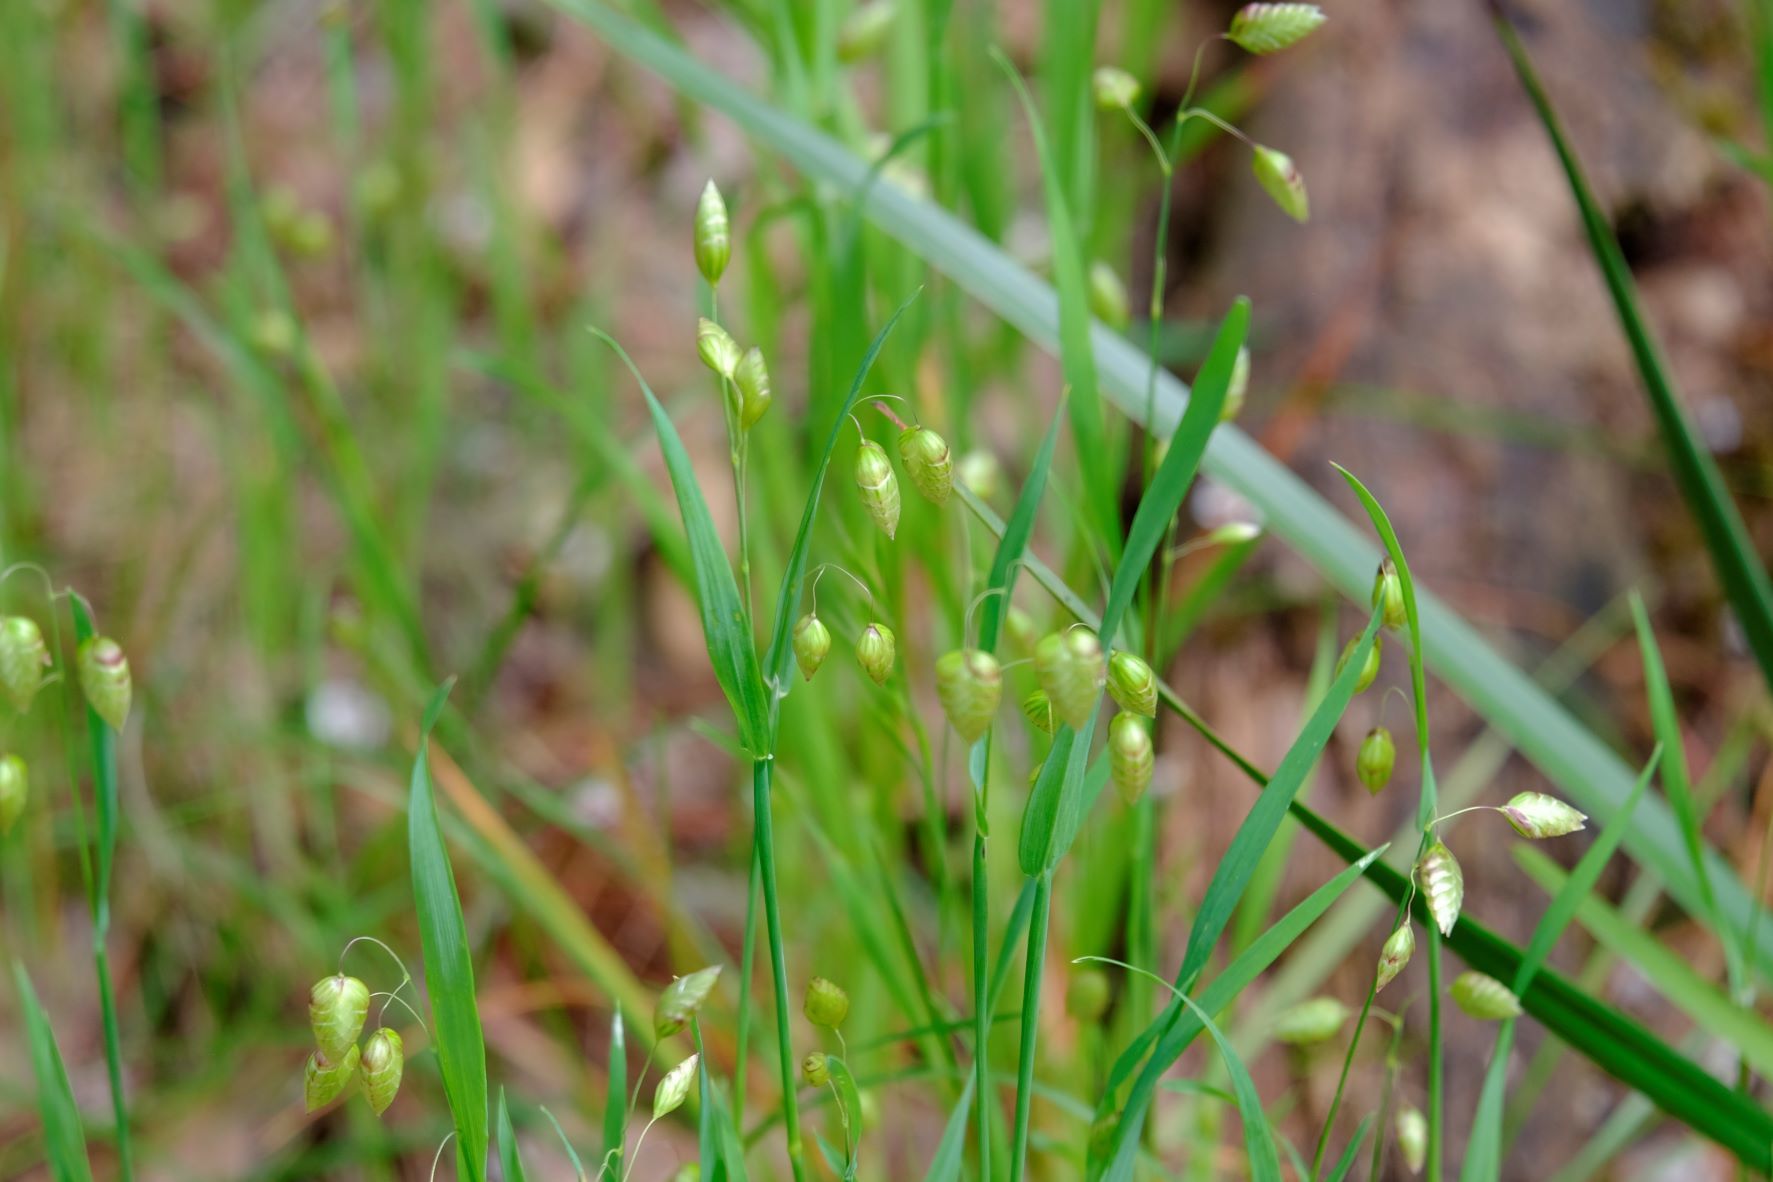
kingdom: Plantae
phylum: Tracheophyta
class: Liliopsida
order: Poales
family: Poaceae
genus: Briza
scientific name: Briza maxima
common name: Big quakinggrass
